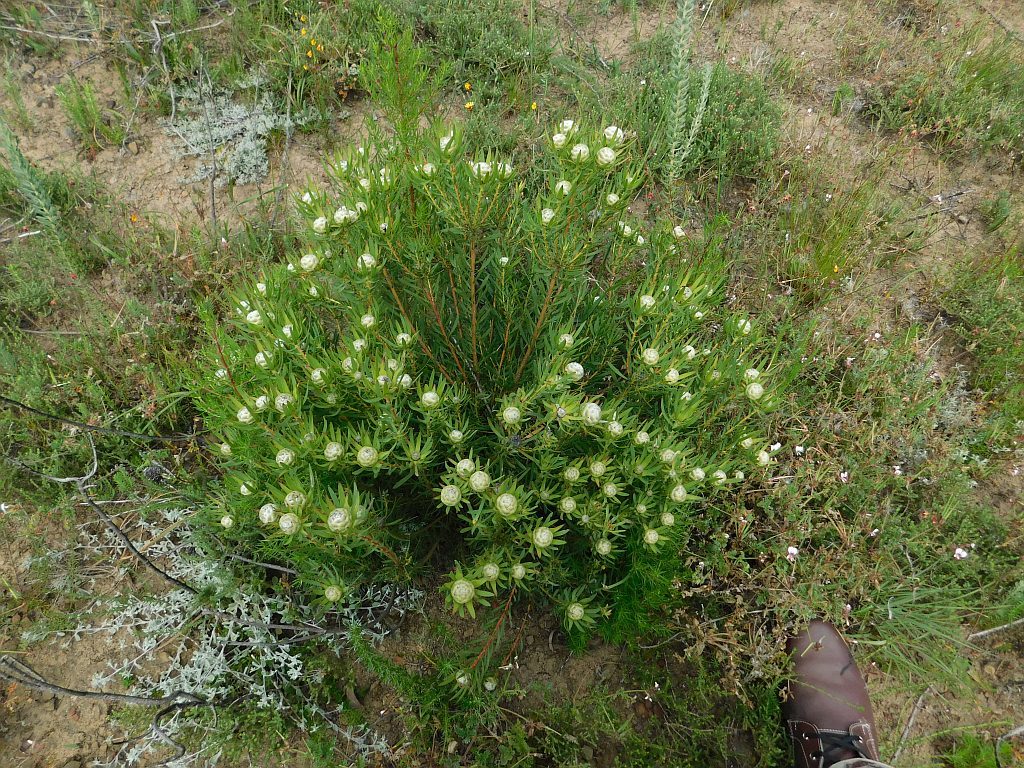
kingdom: Plantae
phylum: Tracheophyta
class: Magnoliopsida
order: Proteales
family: Proteaceae
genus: Leucadendron
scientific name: Leucadendron salignum
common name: Common sunshine conebush
